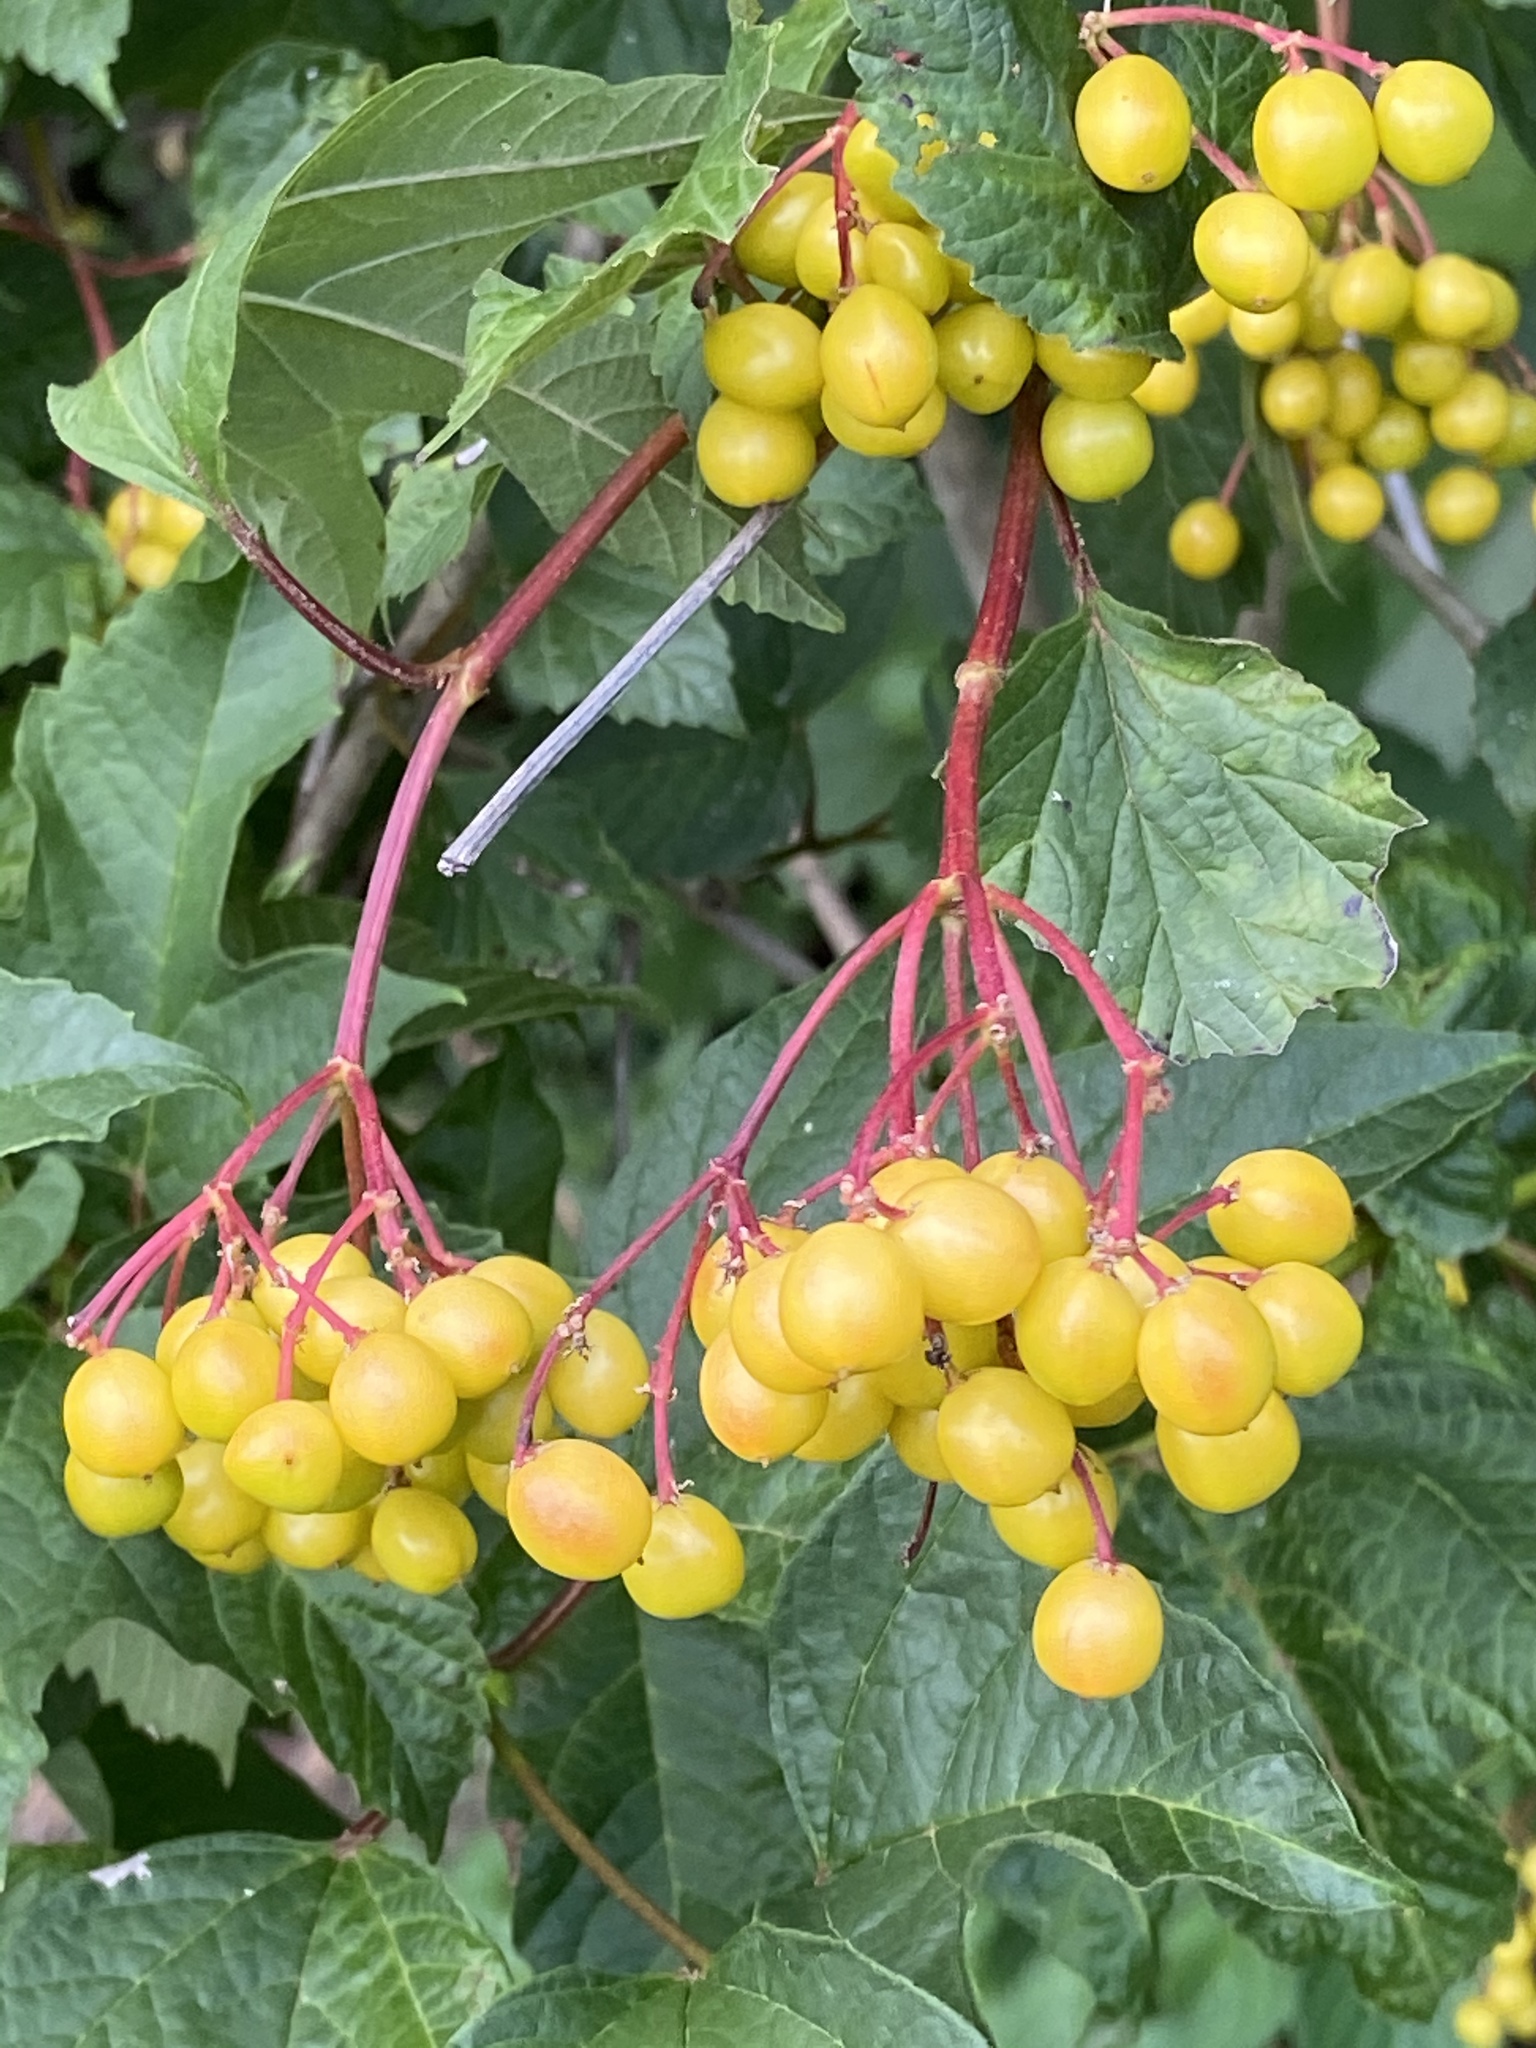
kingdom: Plantae
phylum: Tracheophyta
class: Magnoliopsida
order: Dipsacales
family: Viburnaceae
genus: Viburnum
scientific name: Viburnum opulus
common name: Guelder-rose
